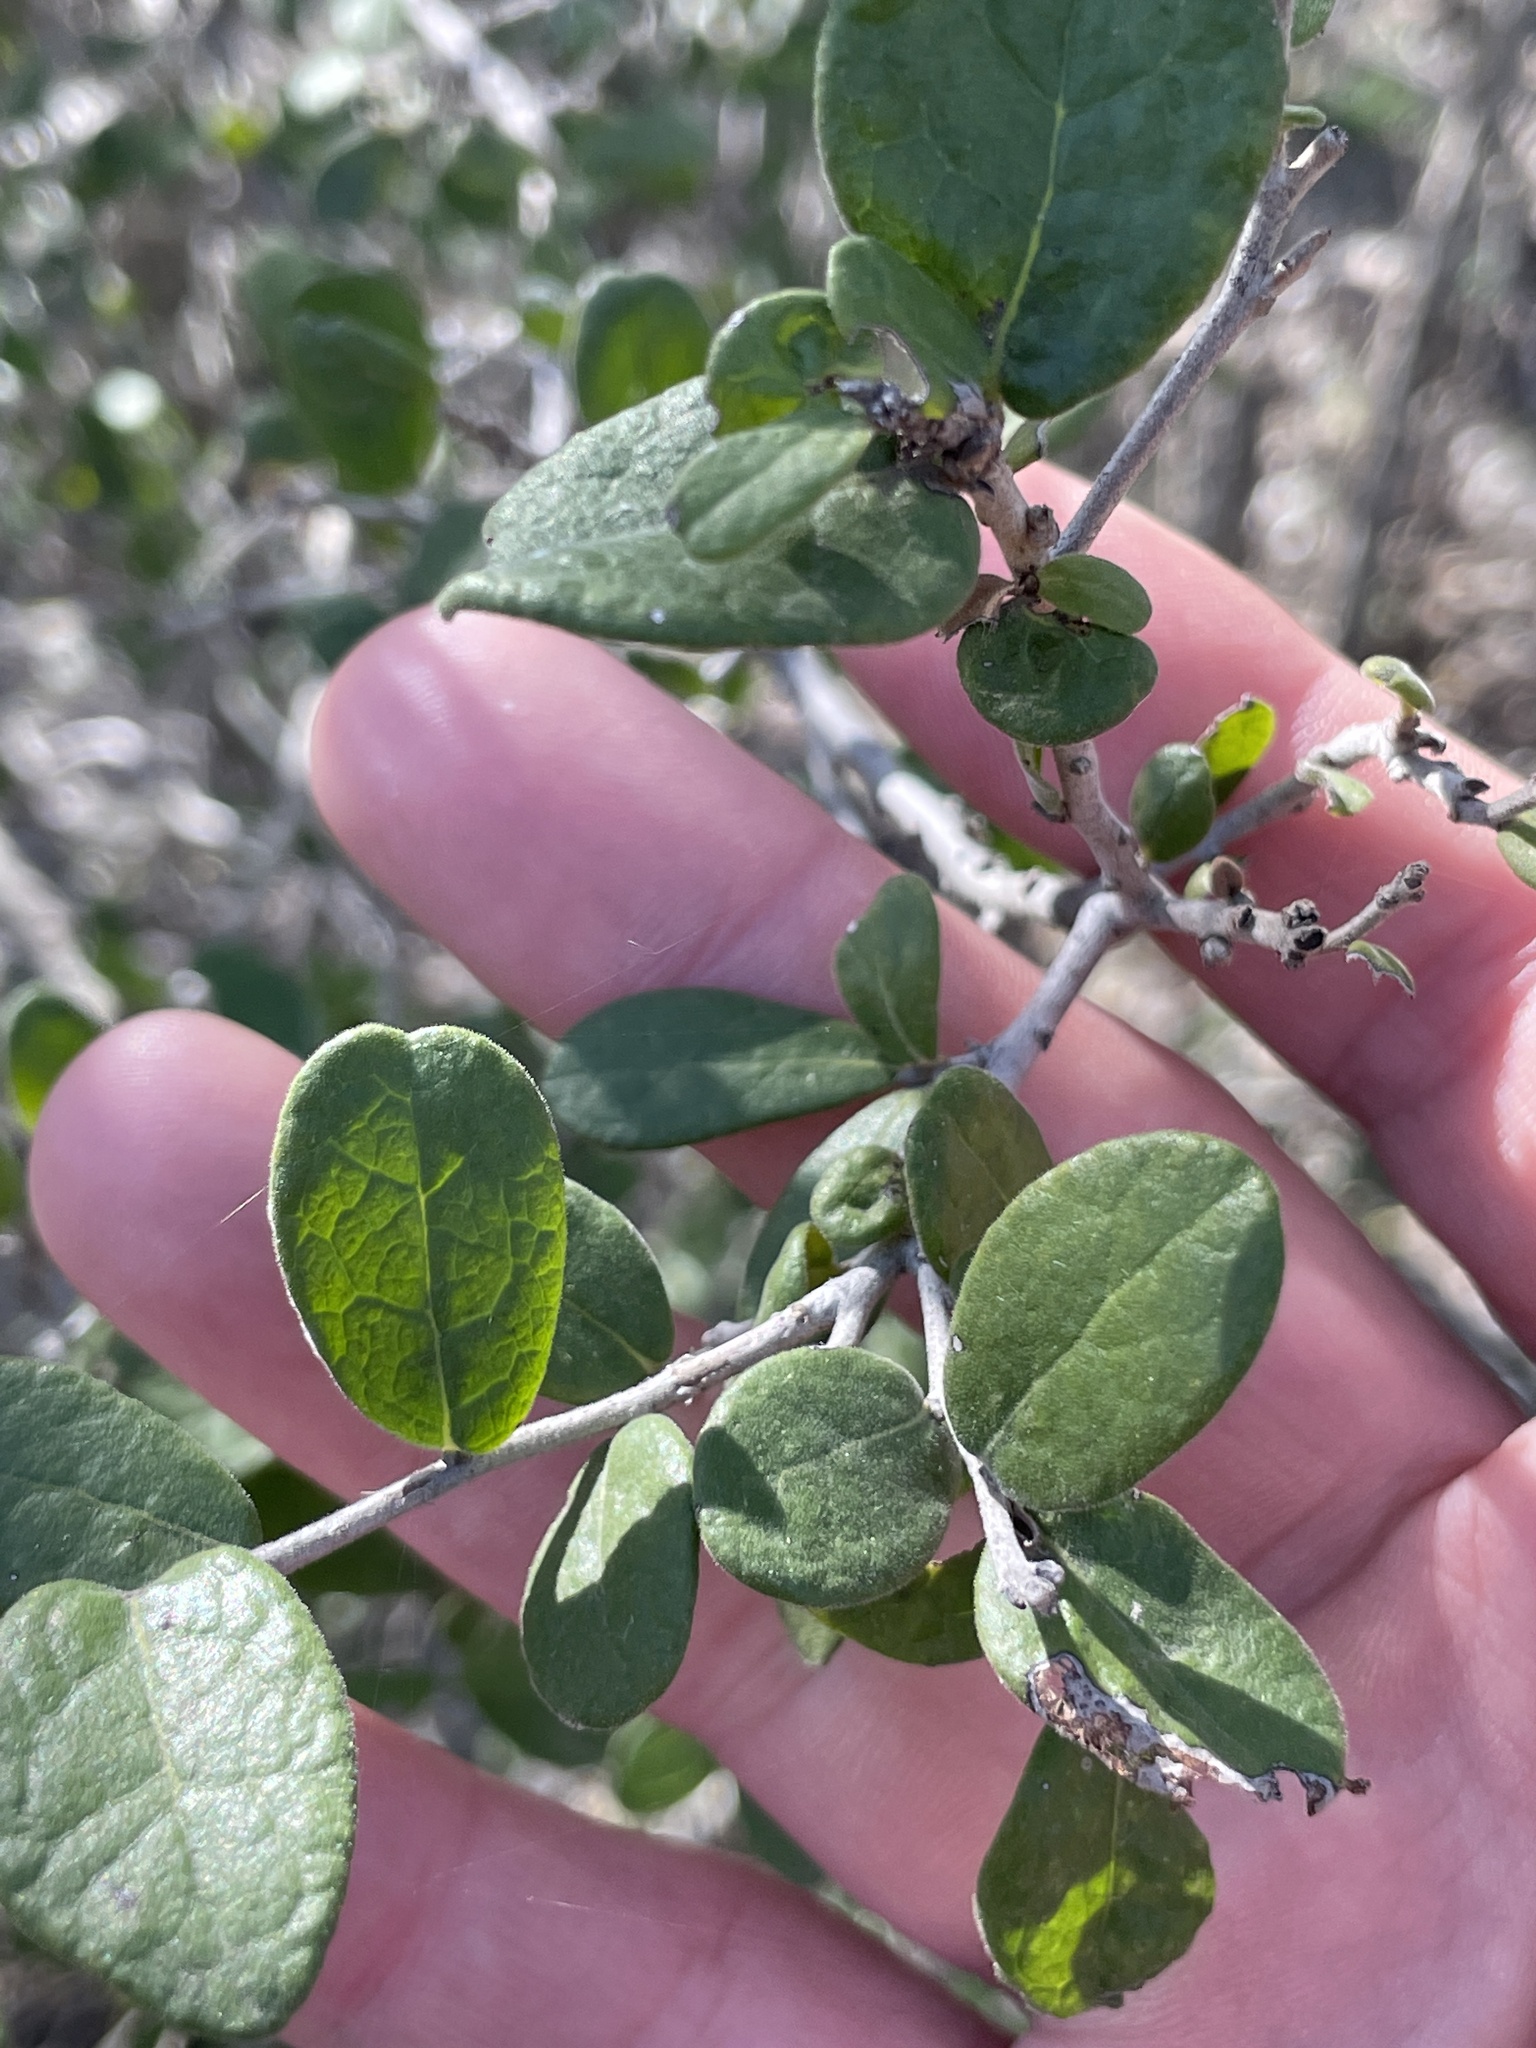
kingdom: Plantae
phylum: Tracheophyta
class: Magnoliopsida
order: Ericales
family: Ebenaceae
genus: Diospyros
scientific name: Diospyros texana
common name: Texas persimmon
